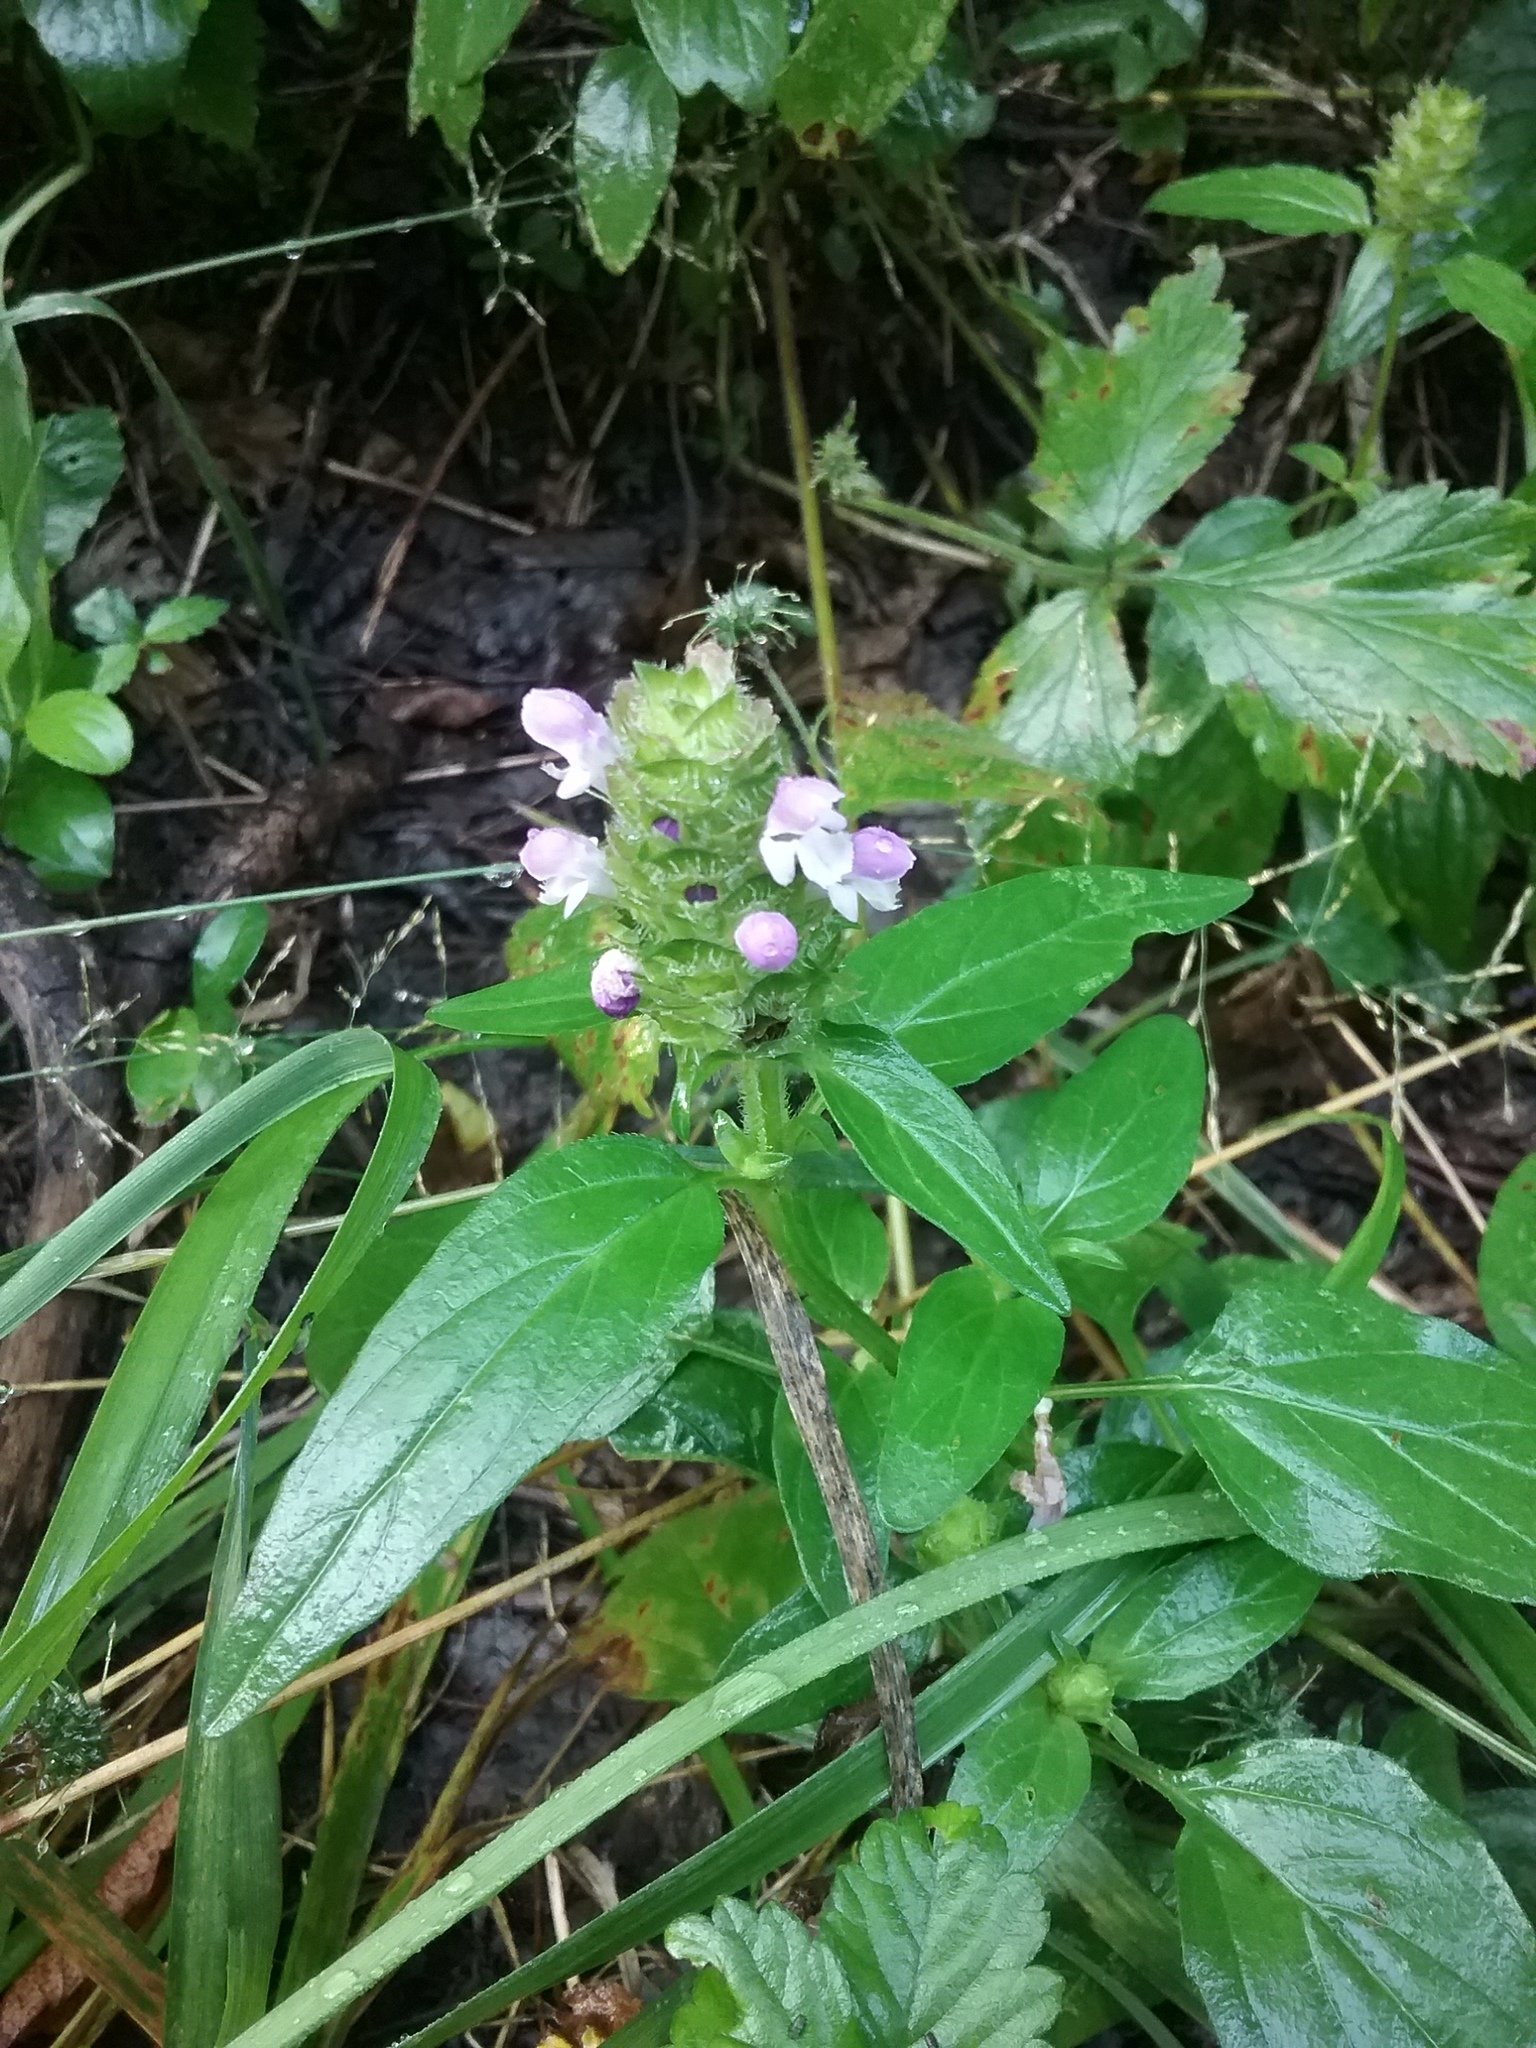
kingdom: Plantae
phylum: Tracheophyta
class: Magnoliopsida
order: Lamiales
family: Lamiaceae
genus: Prunella
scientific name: Prunella vulgaris
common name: Heal-all
